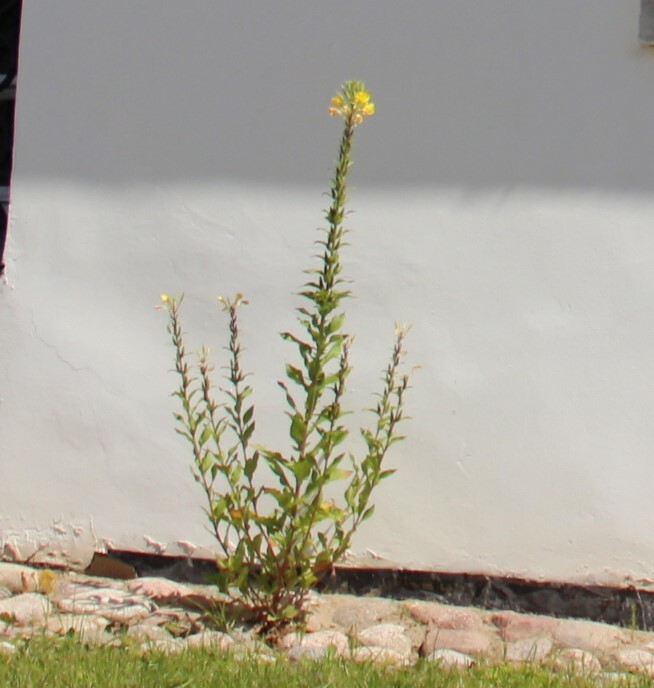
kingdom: Plantae
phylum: Tracheophyta
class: Magnoliopsida
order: Myrtales
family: Onagraceae
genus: Oenothera
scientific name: Oenothera rubricaulis
